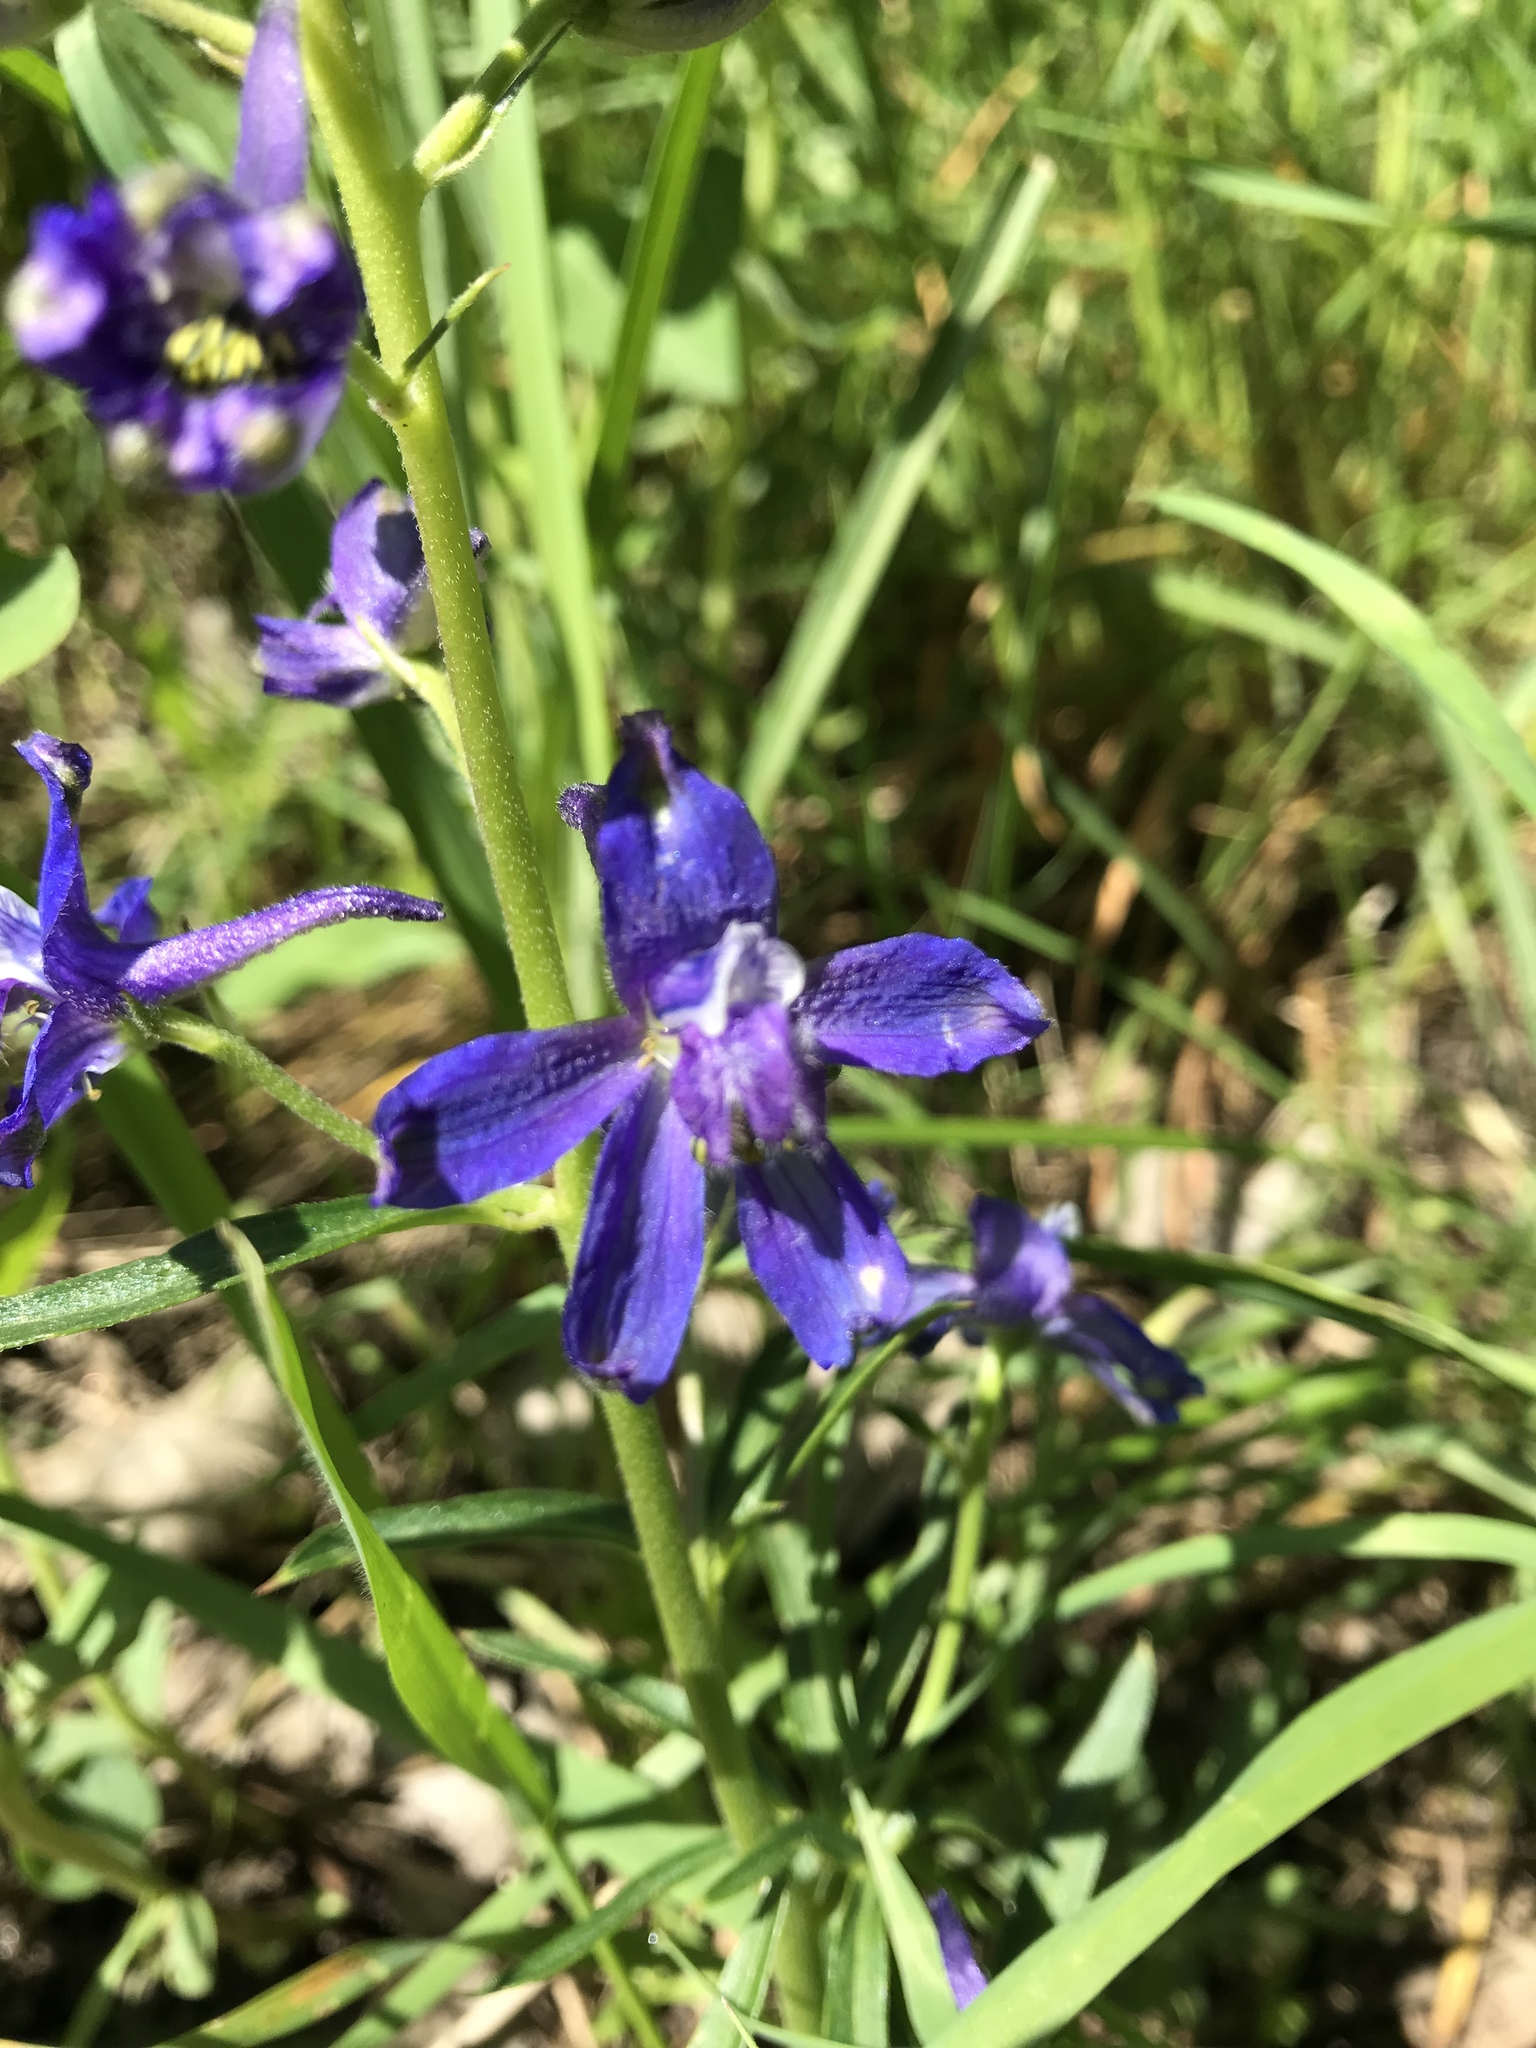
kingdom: Plantae
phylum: Tracheophyta
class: Magnoliopsida
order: Ranunculales
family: Ranunculaceae
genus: Delphinium
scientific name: Delphinium nuttallianum
